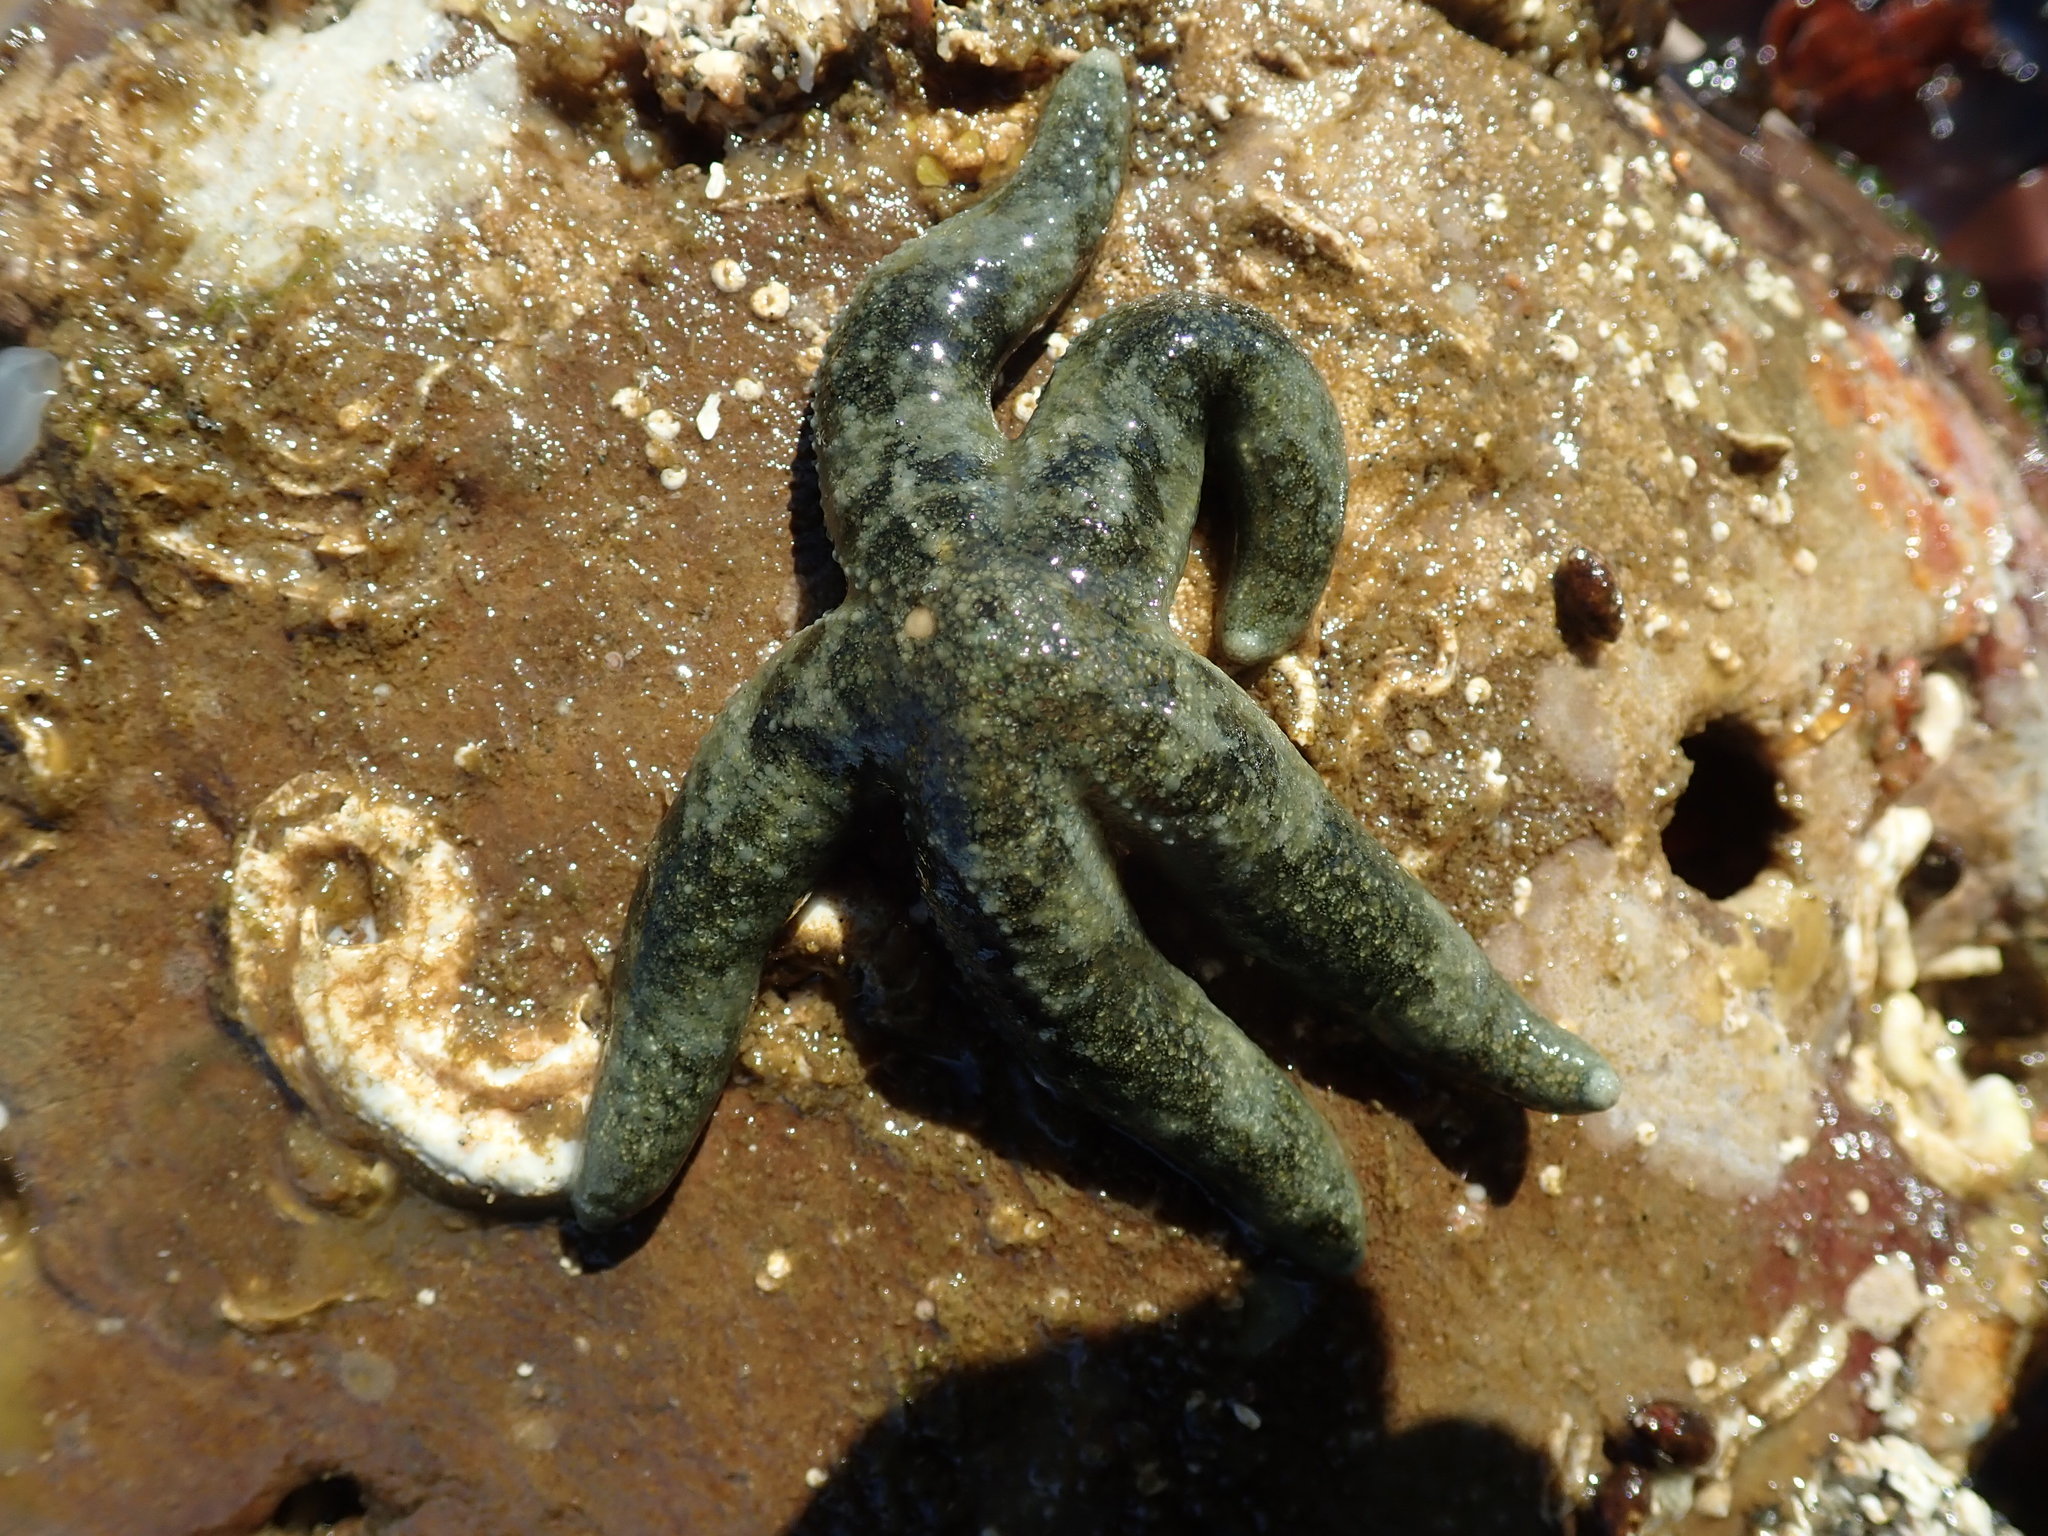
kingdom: Animalia
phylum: Echinodermata
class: Asteroidea
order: Forcipulatida
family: Asteriidae
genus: Evasterias
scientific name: Evasterias troschelii
